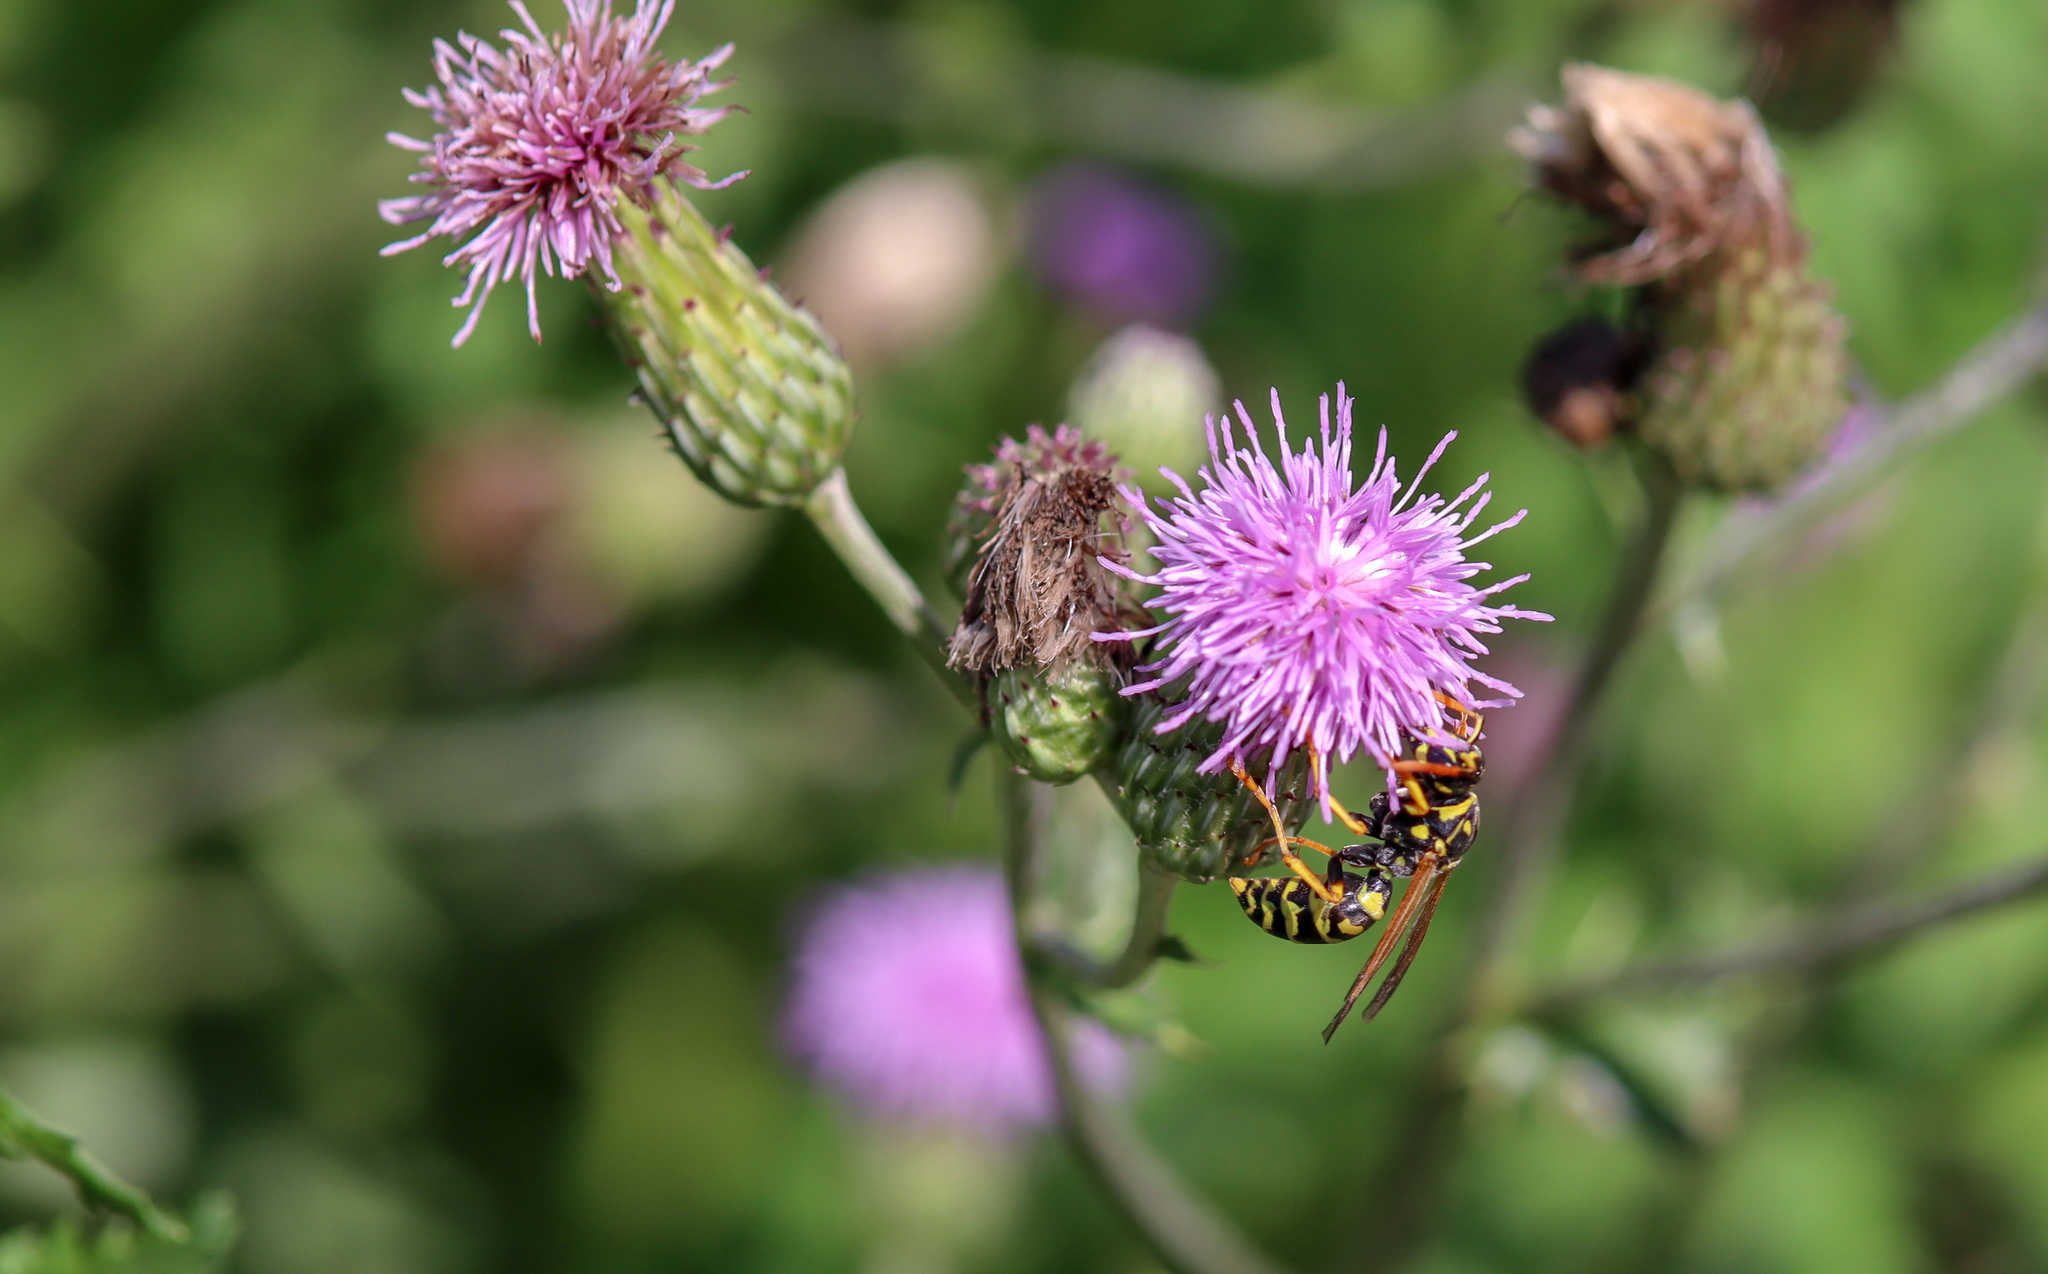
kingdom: Animalia
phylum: Arthropoda
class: Insecta
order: Hymenoptera
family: Eumenidae
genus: Polistes
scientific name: Polistes dominula
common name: Paper wasp
